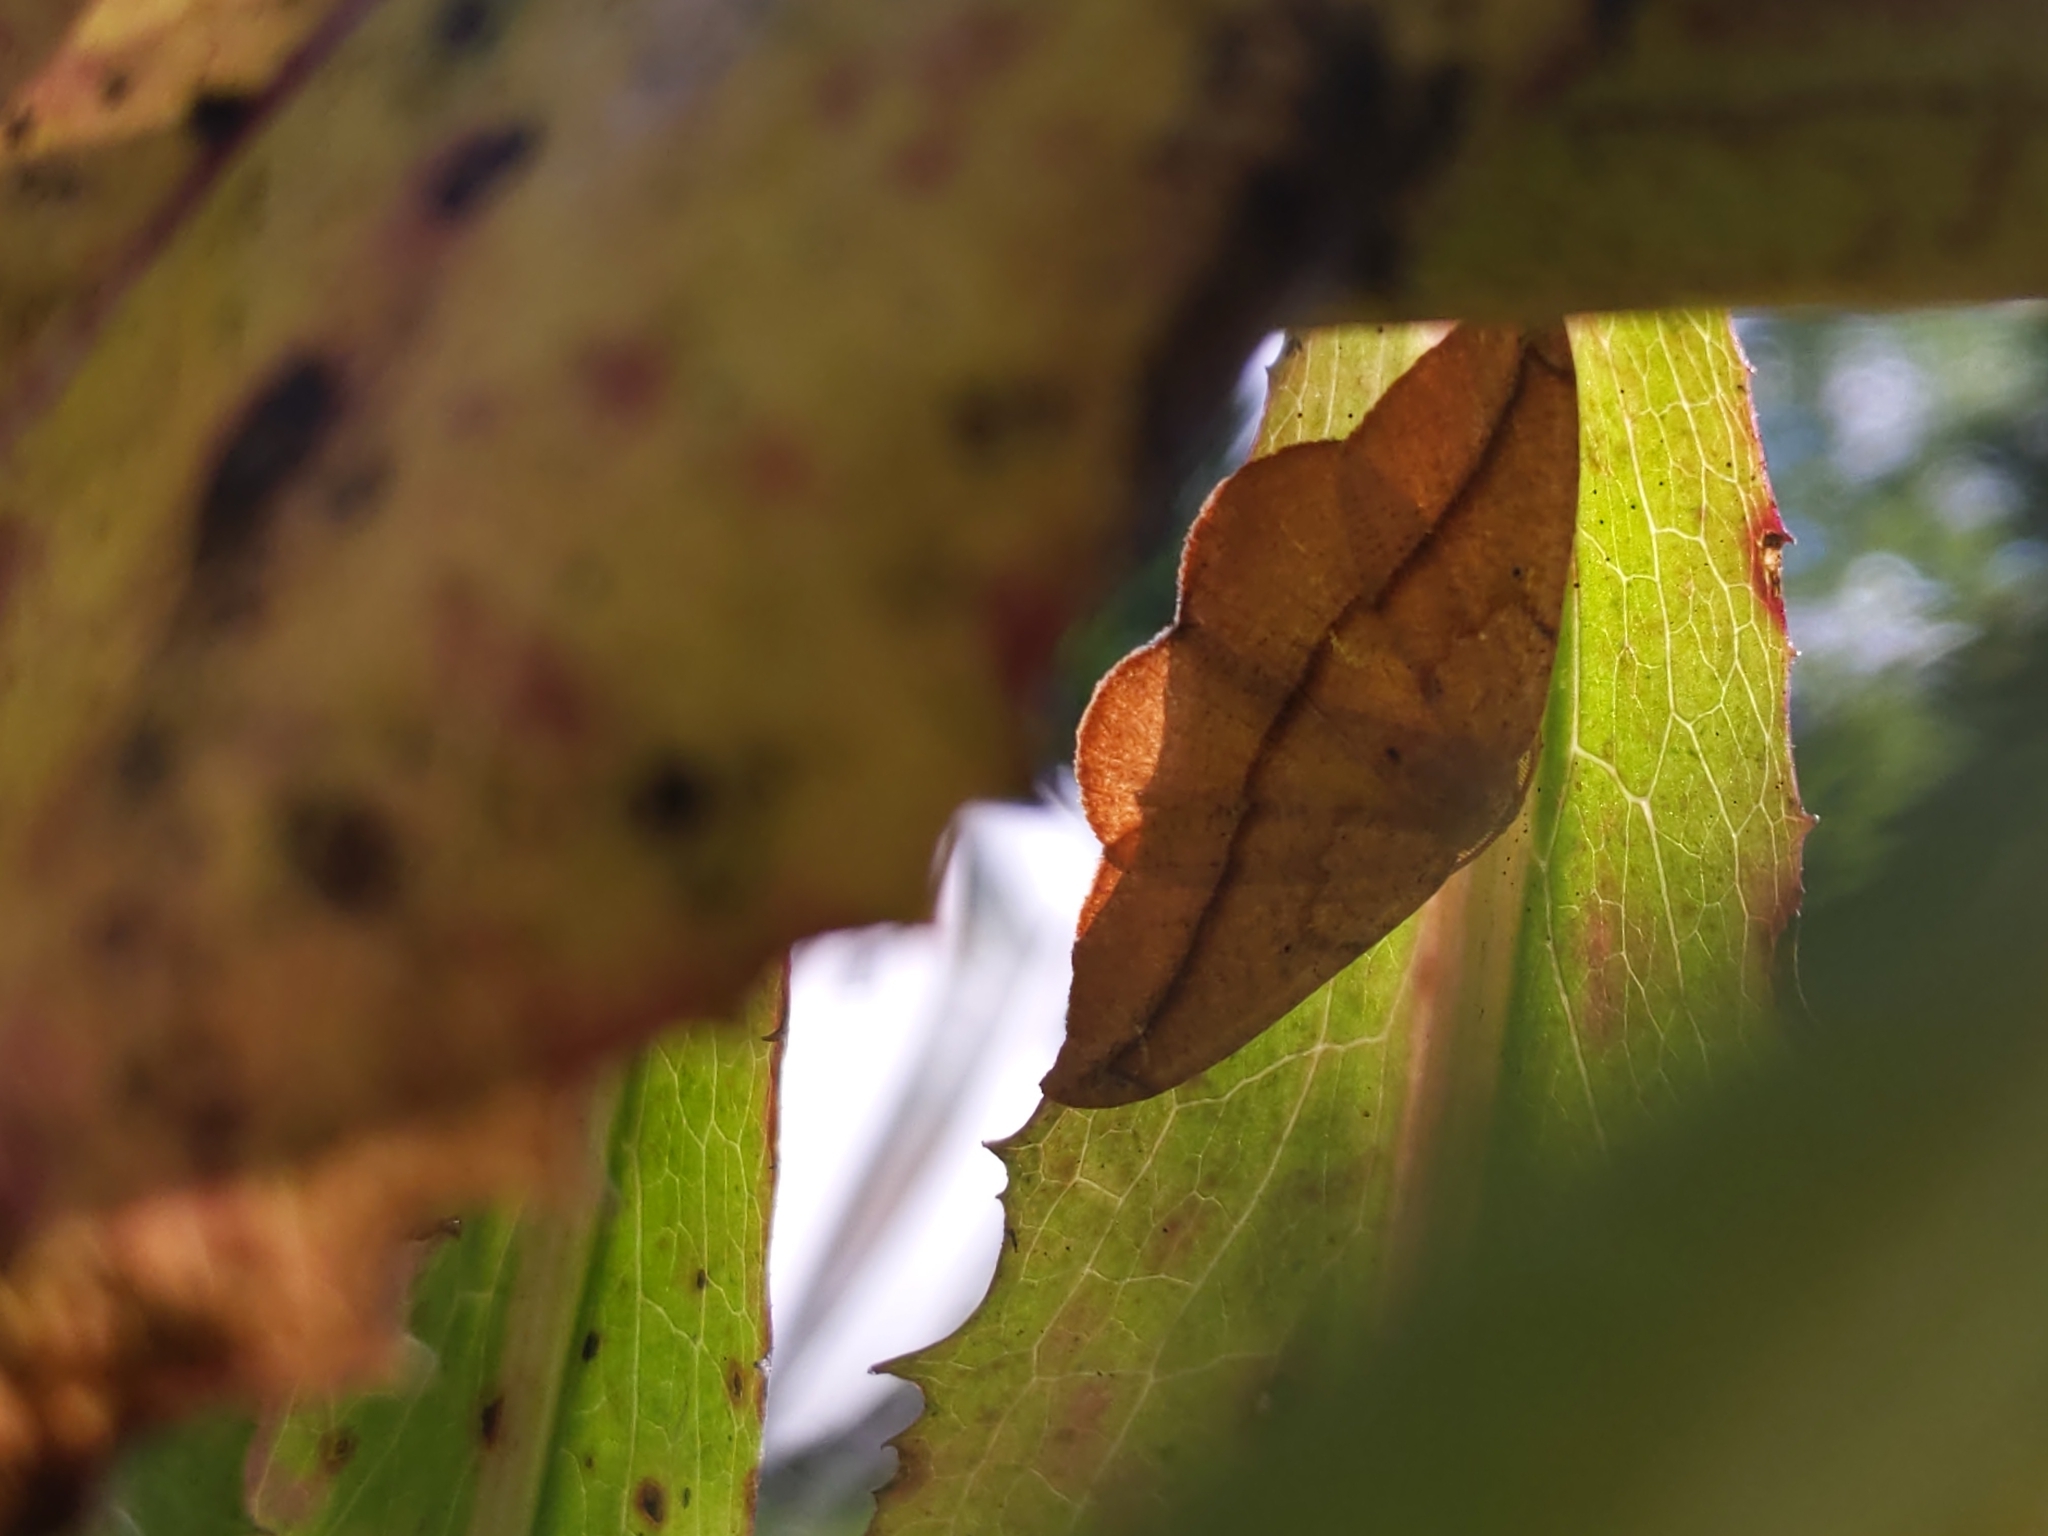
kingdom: Animalia
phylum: Arthropoda
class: Insecta
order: Lepidoptera
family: Geometridae
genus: Patalene
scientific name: Patalene olyzonaria
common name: Juniper geometer moth
